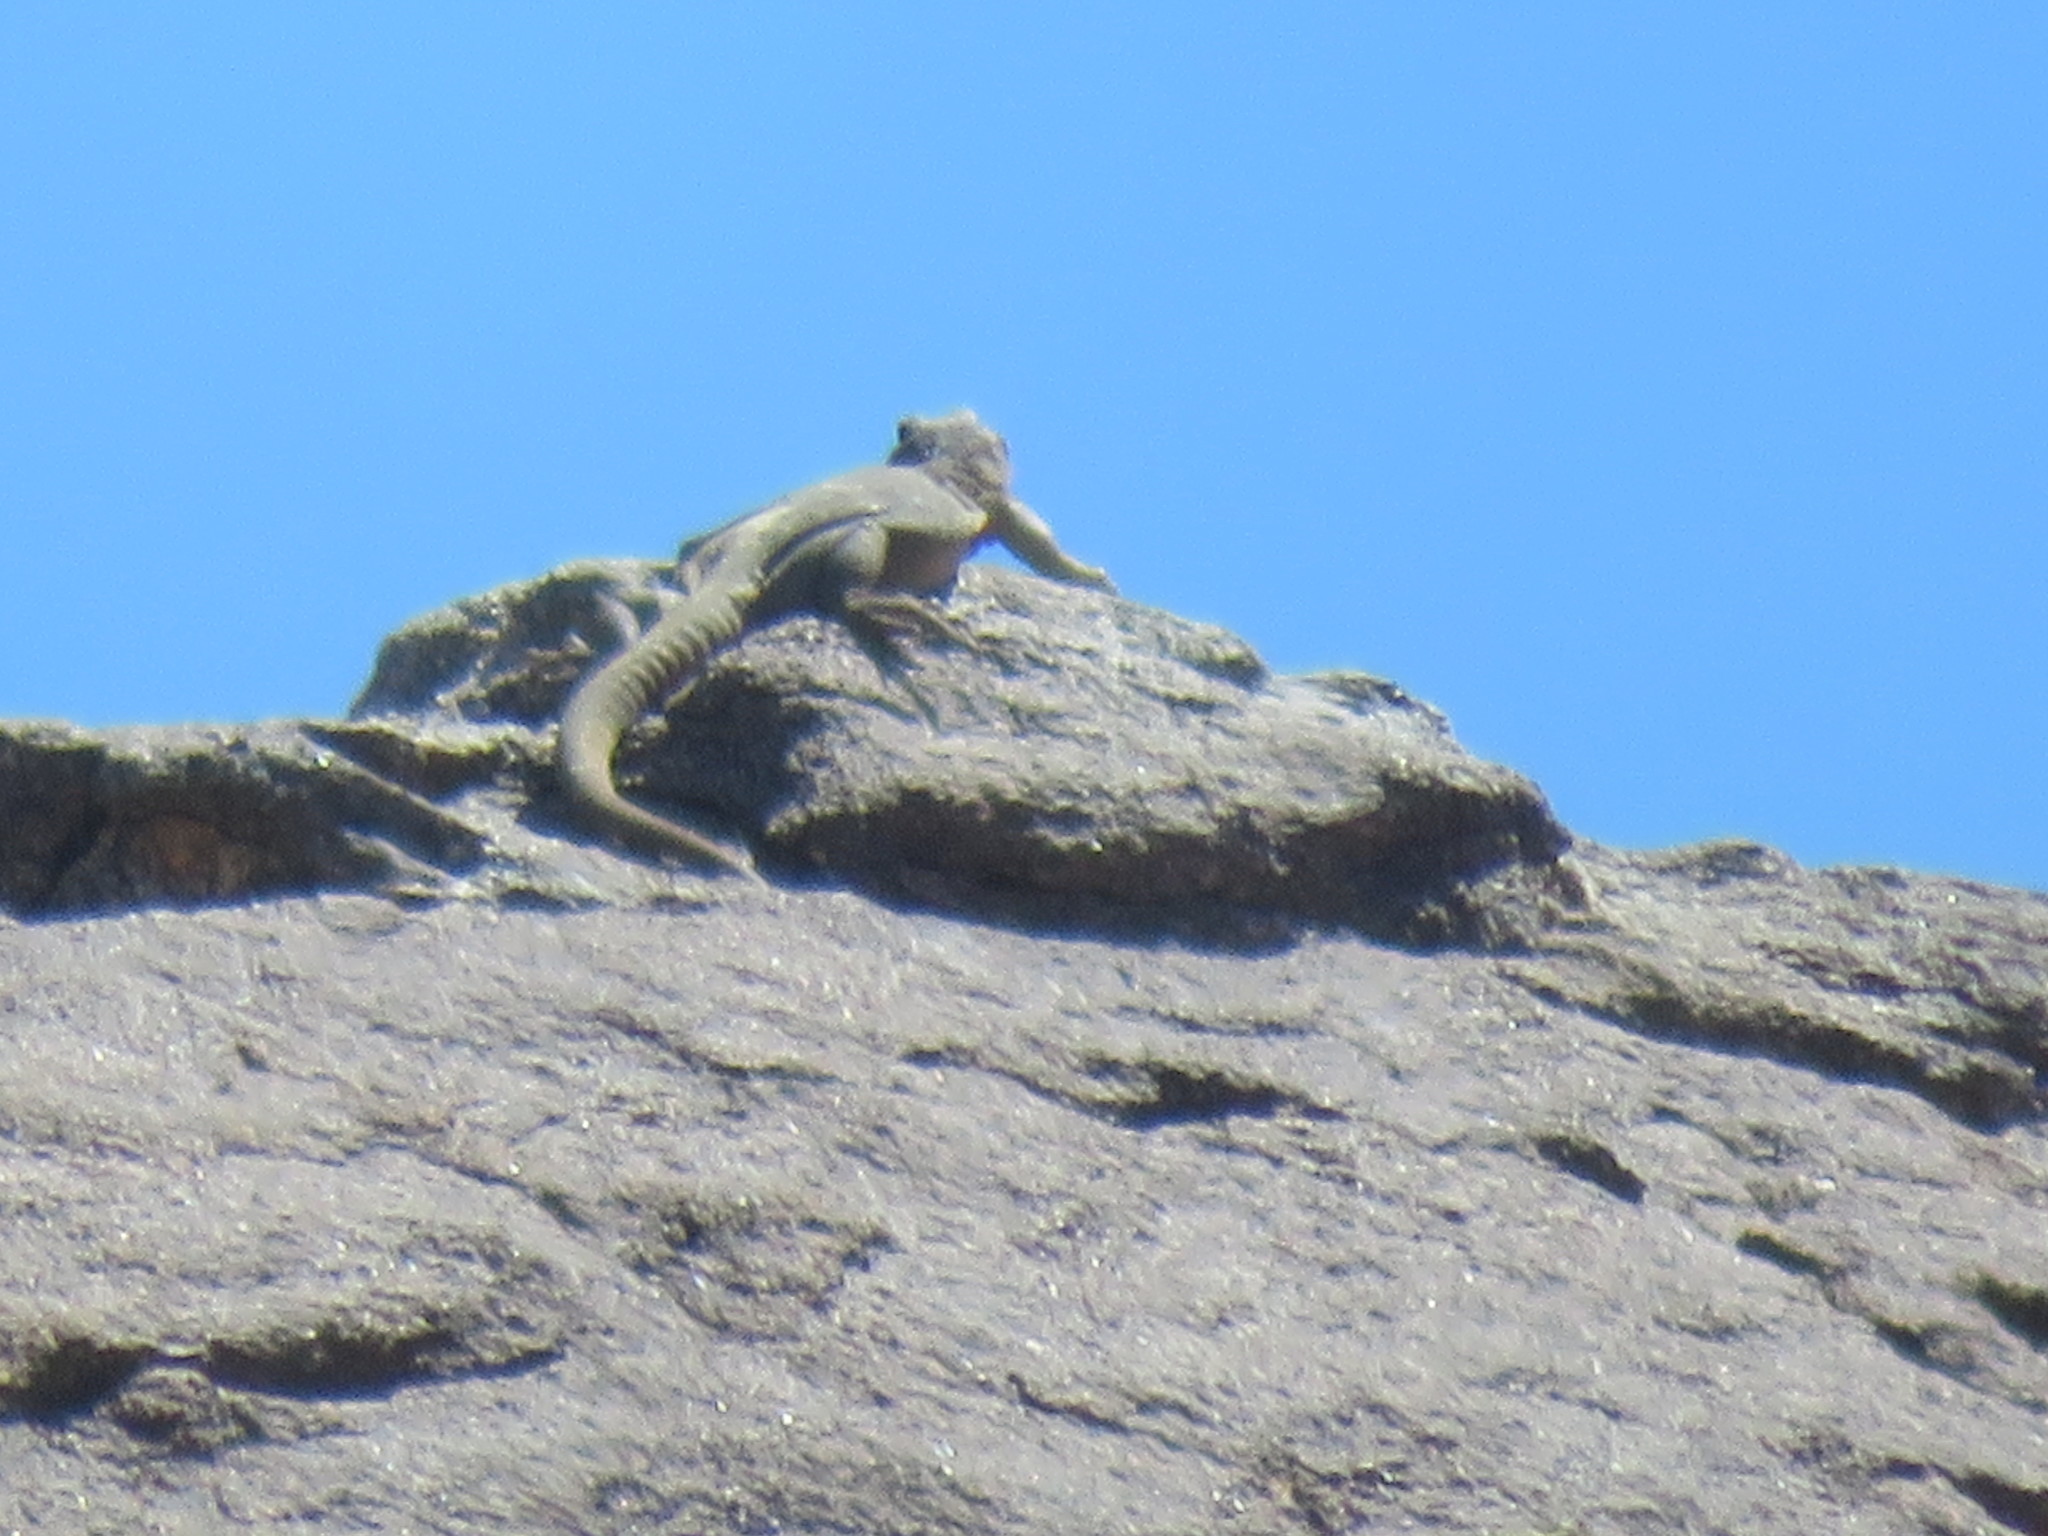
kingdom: Animalia
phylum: Chordata
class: Squamata
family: Iguanidae
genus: Sauromalus
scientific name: Sauromalus ater
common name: Northern chuckwalla
